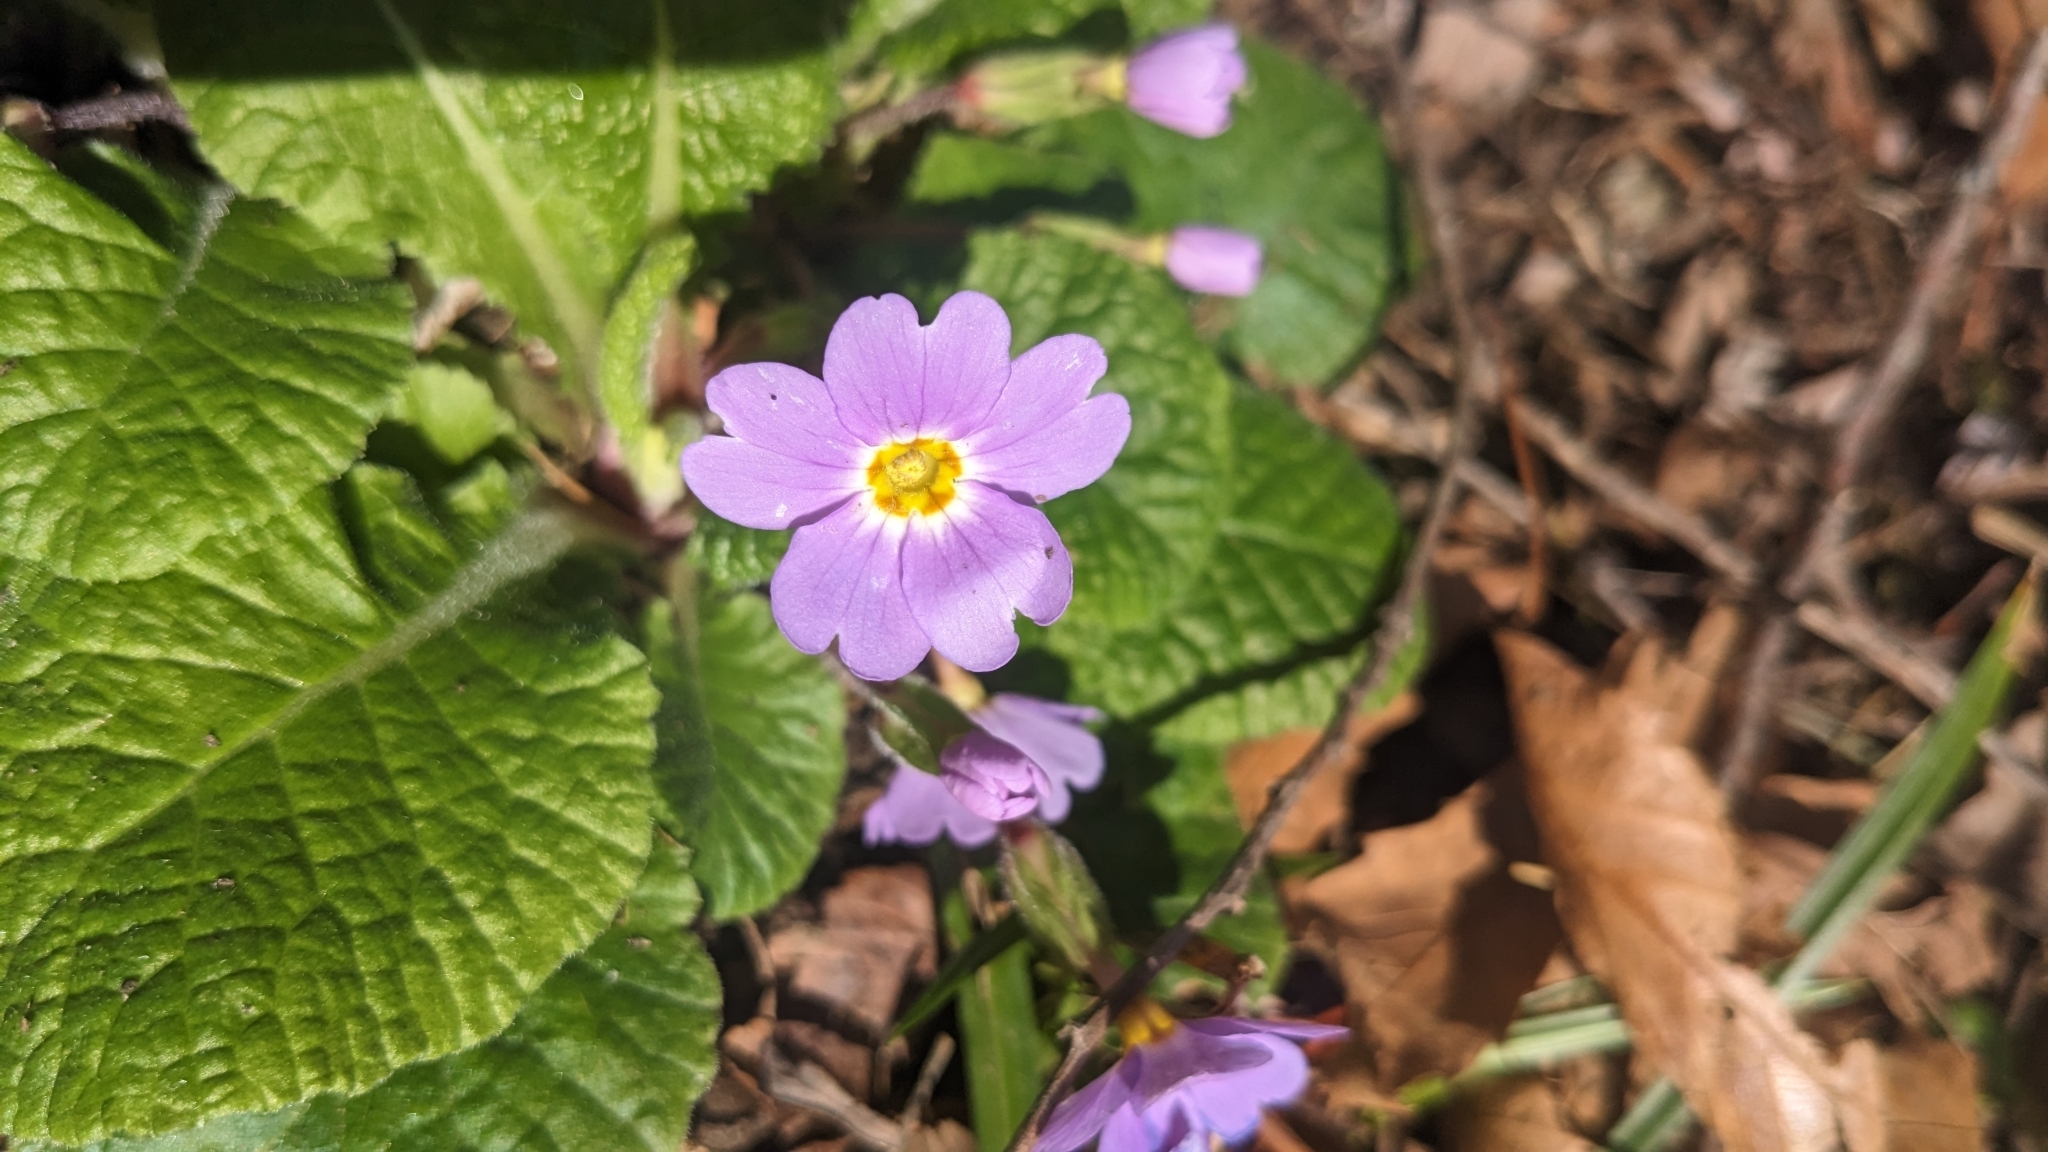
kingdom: Plantae
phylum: Tracheophyta
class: Magnoliopsida
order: Ericales
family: Primulaceae
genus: Primula
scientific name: Primula vulgaris
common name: Primrose
